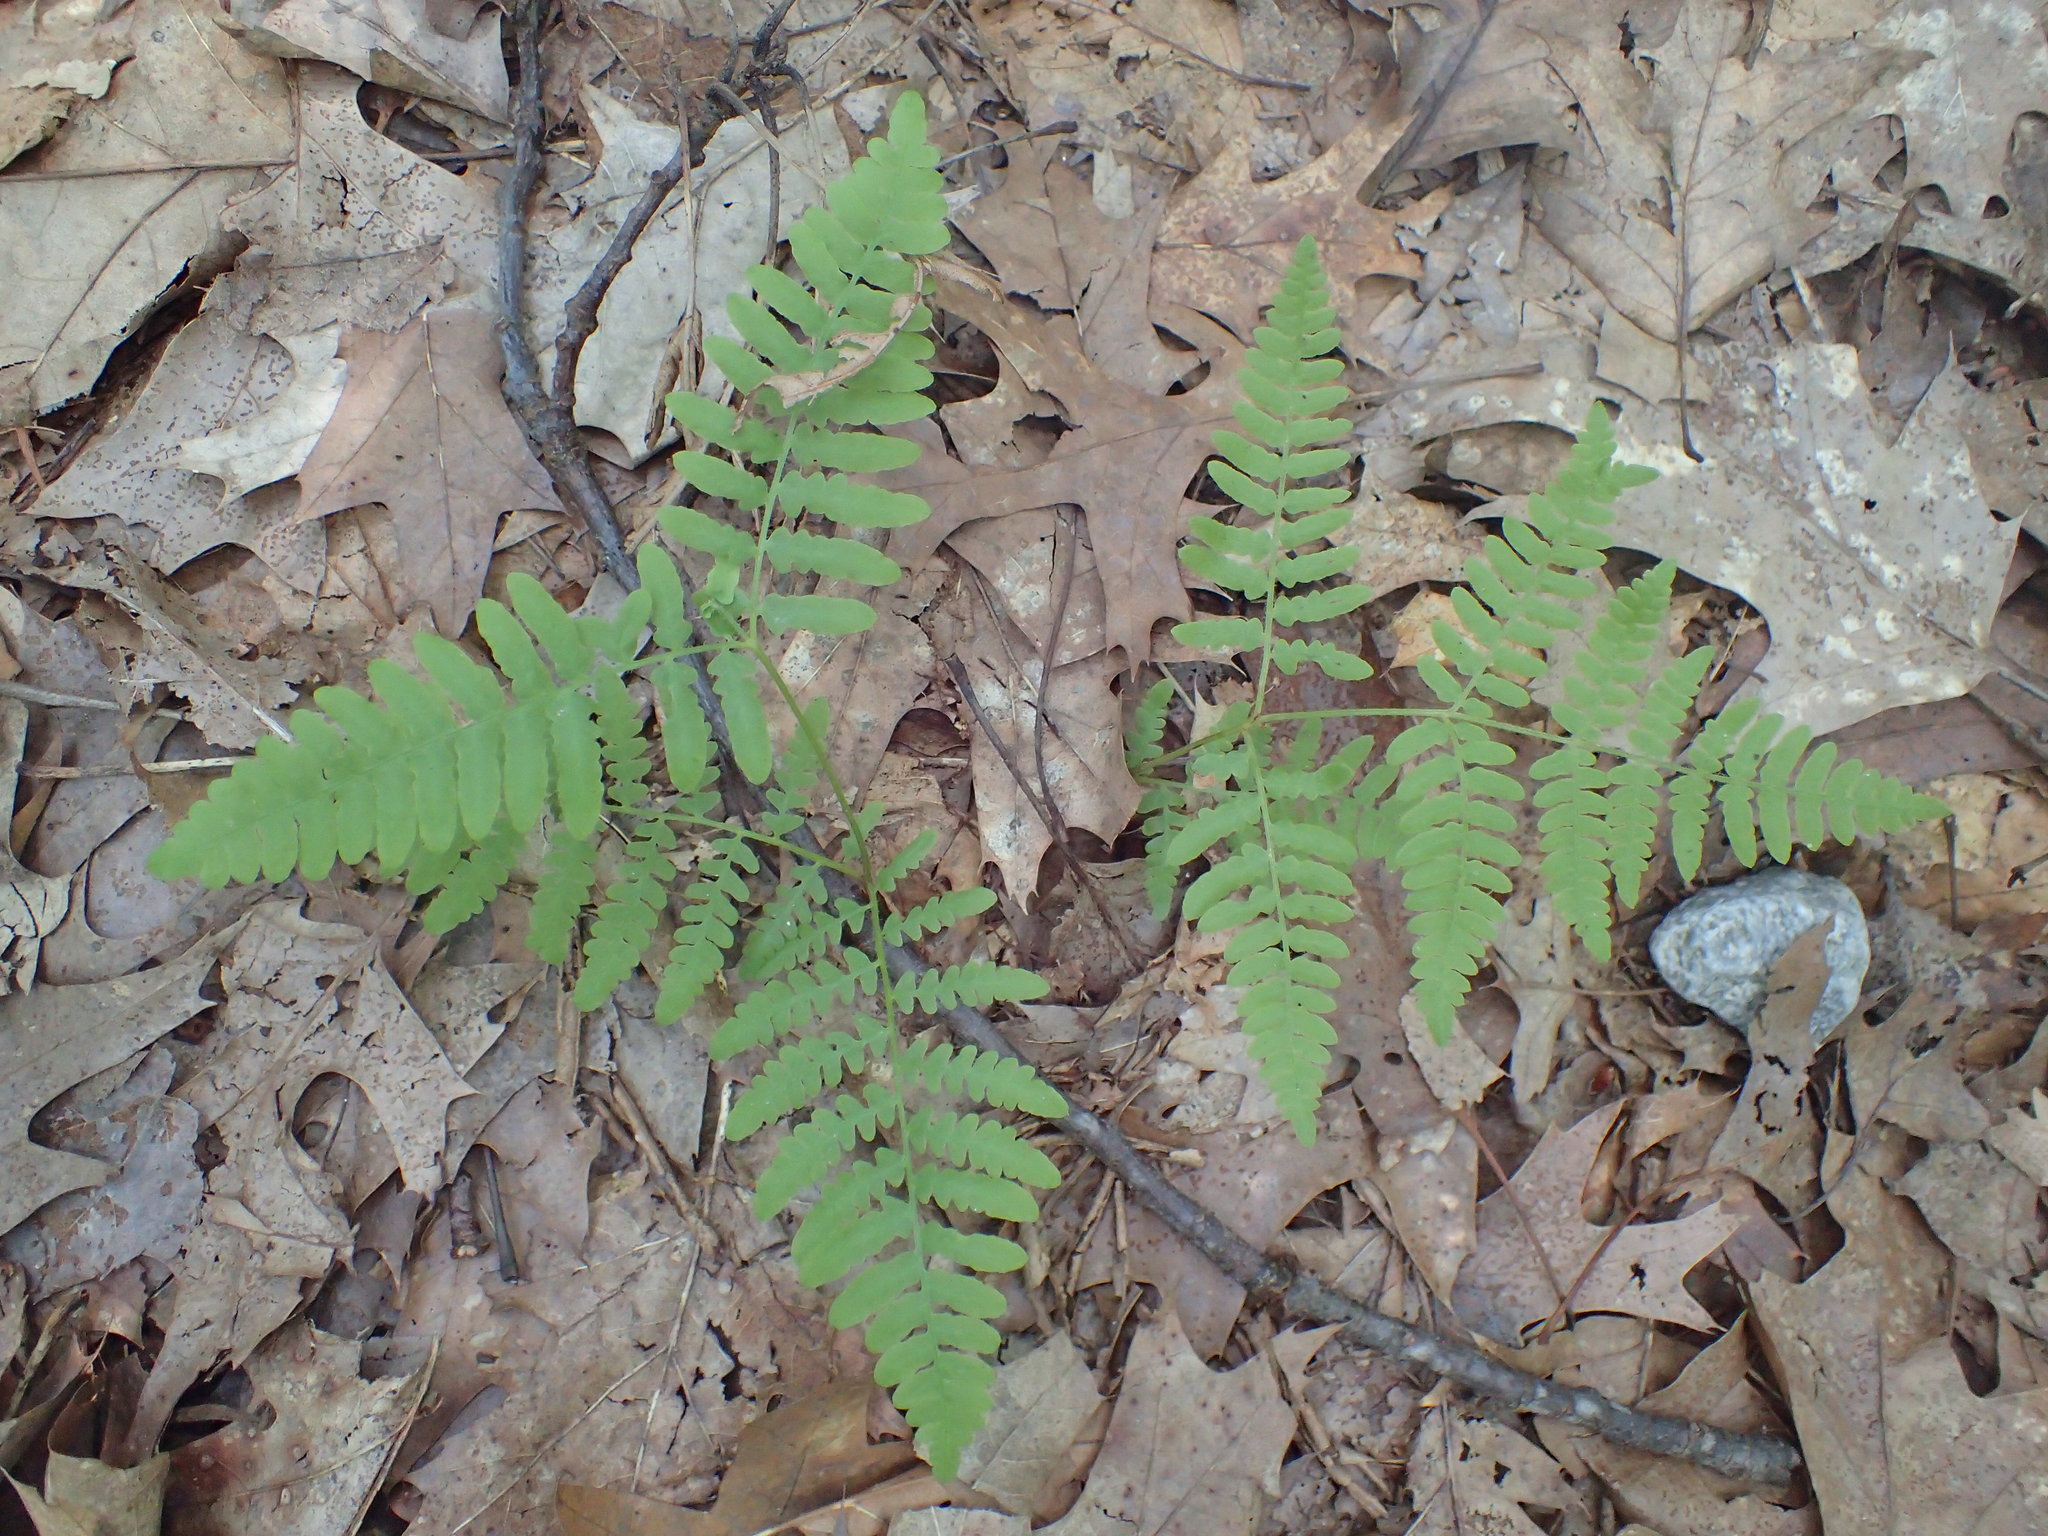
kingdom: Plantae
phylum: Tracheophyta
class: Polypodiopsida
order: Polypodiales
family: Dennstaedtiaceae
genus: Pteridium
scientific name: Pteridium aquilinum
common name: Bracken
